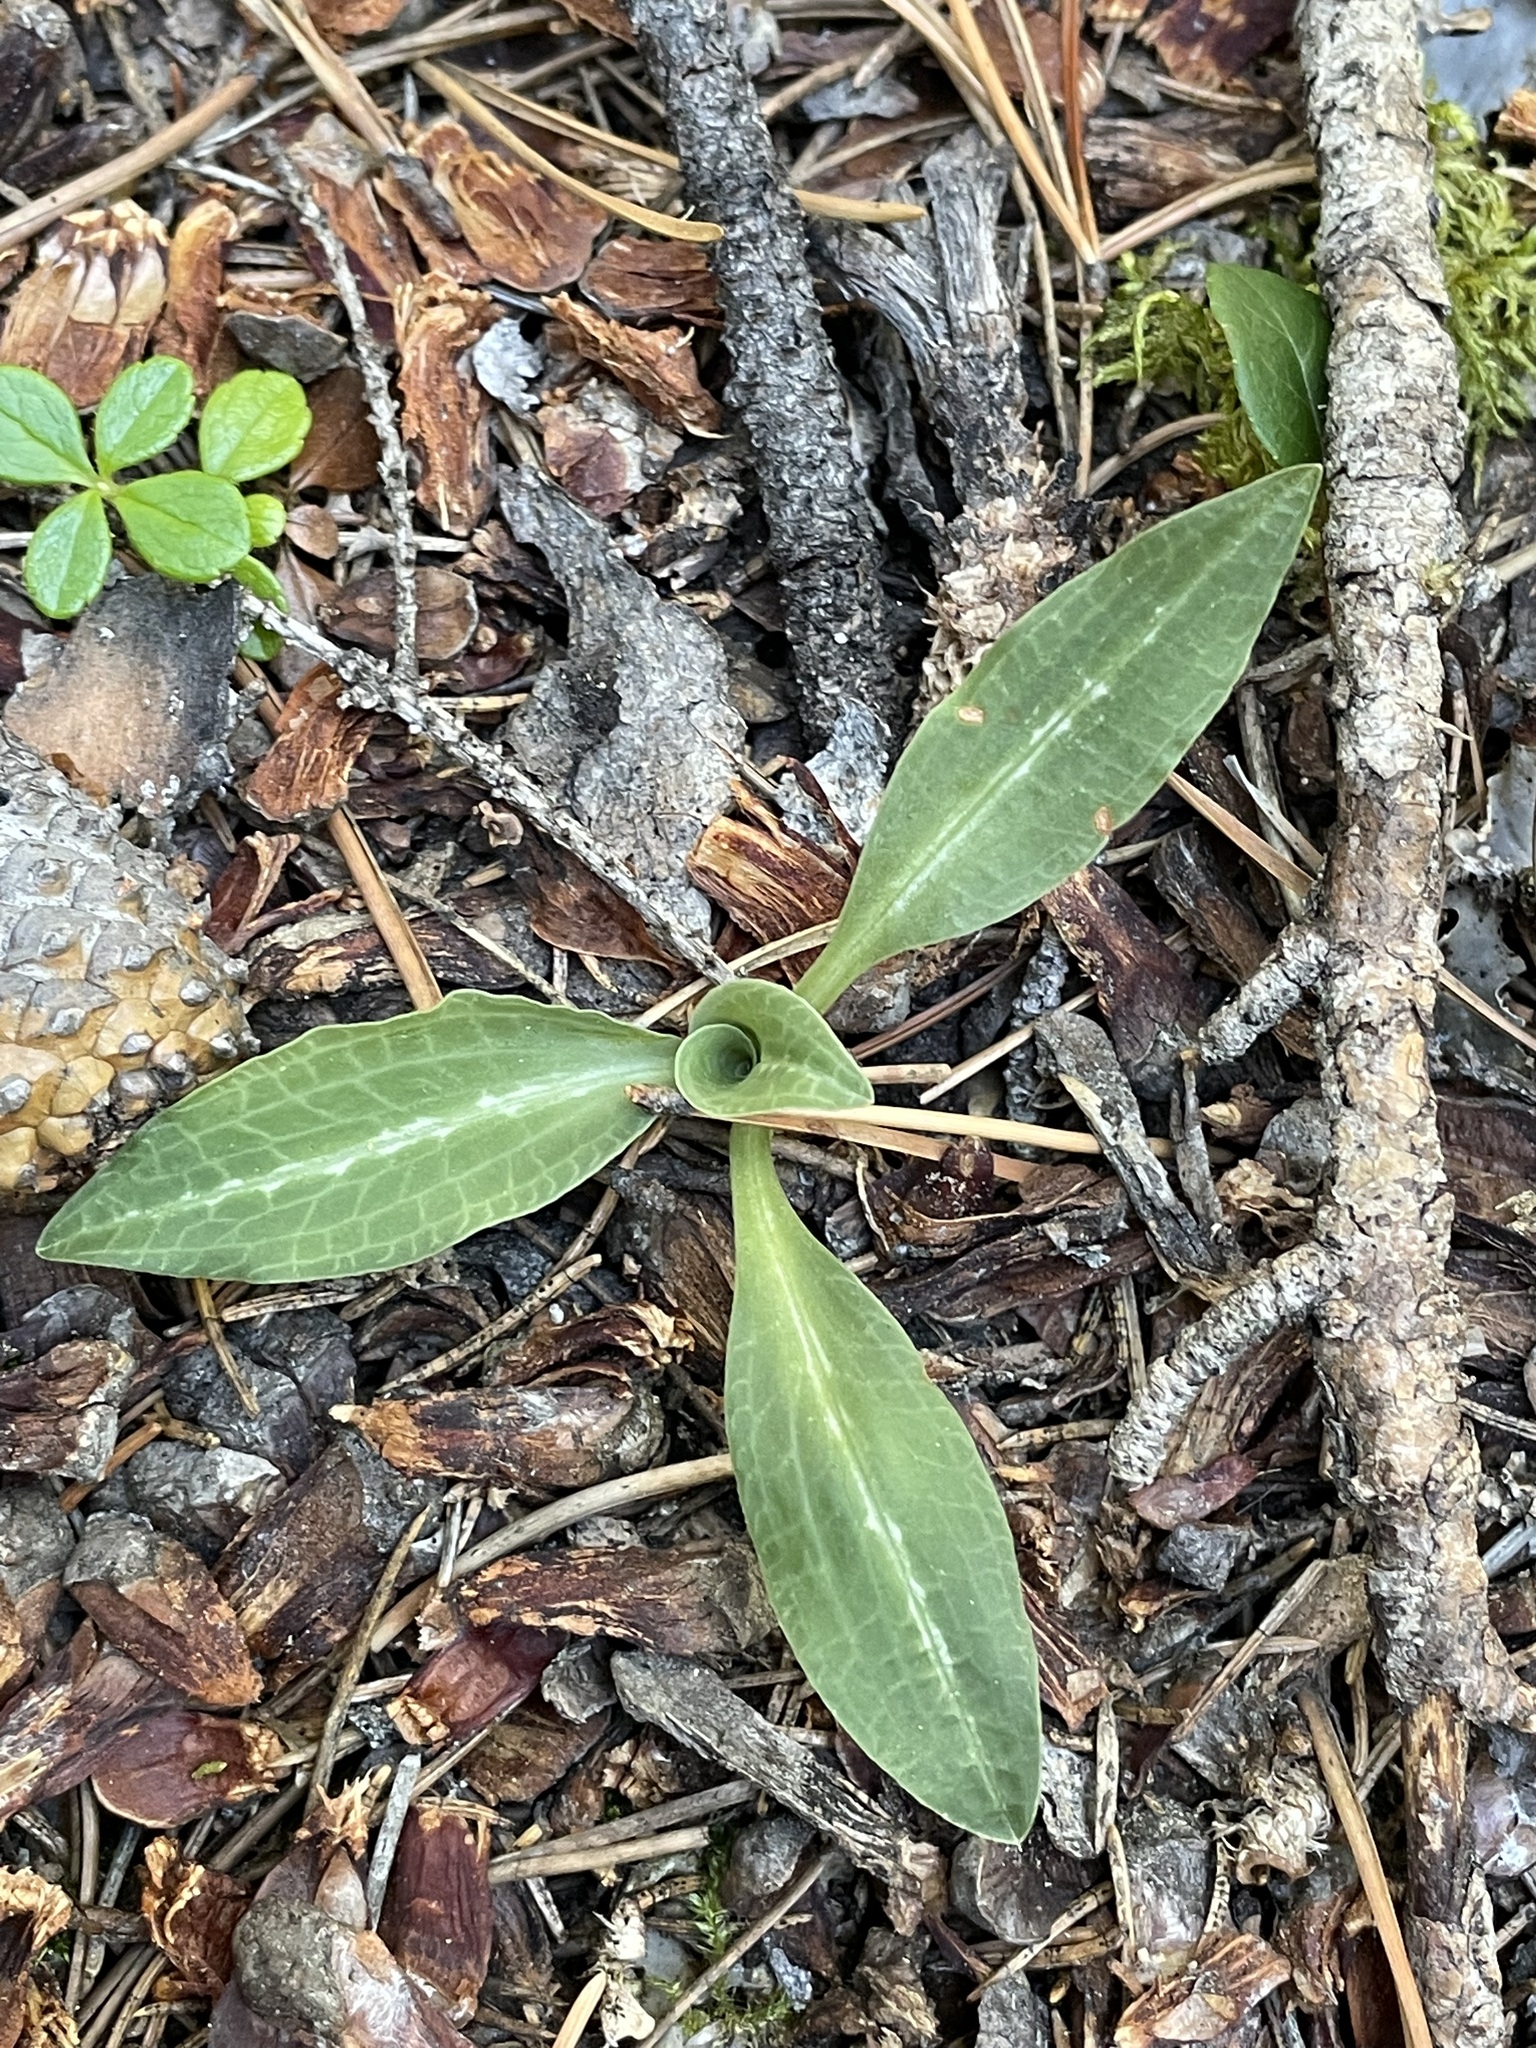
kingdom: Plantae
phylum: Tracheophyta
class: Liliopsida
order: Asparagales
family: Orchidaceae
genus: Goodyera
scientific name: Goodyera oblongifolia
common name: Giant rattlesnake-plantain
